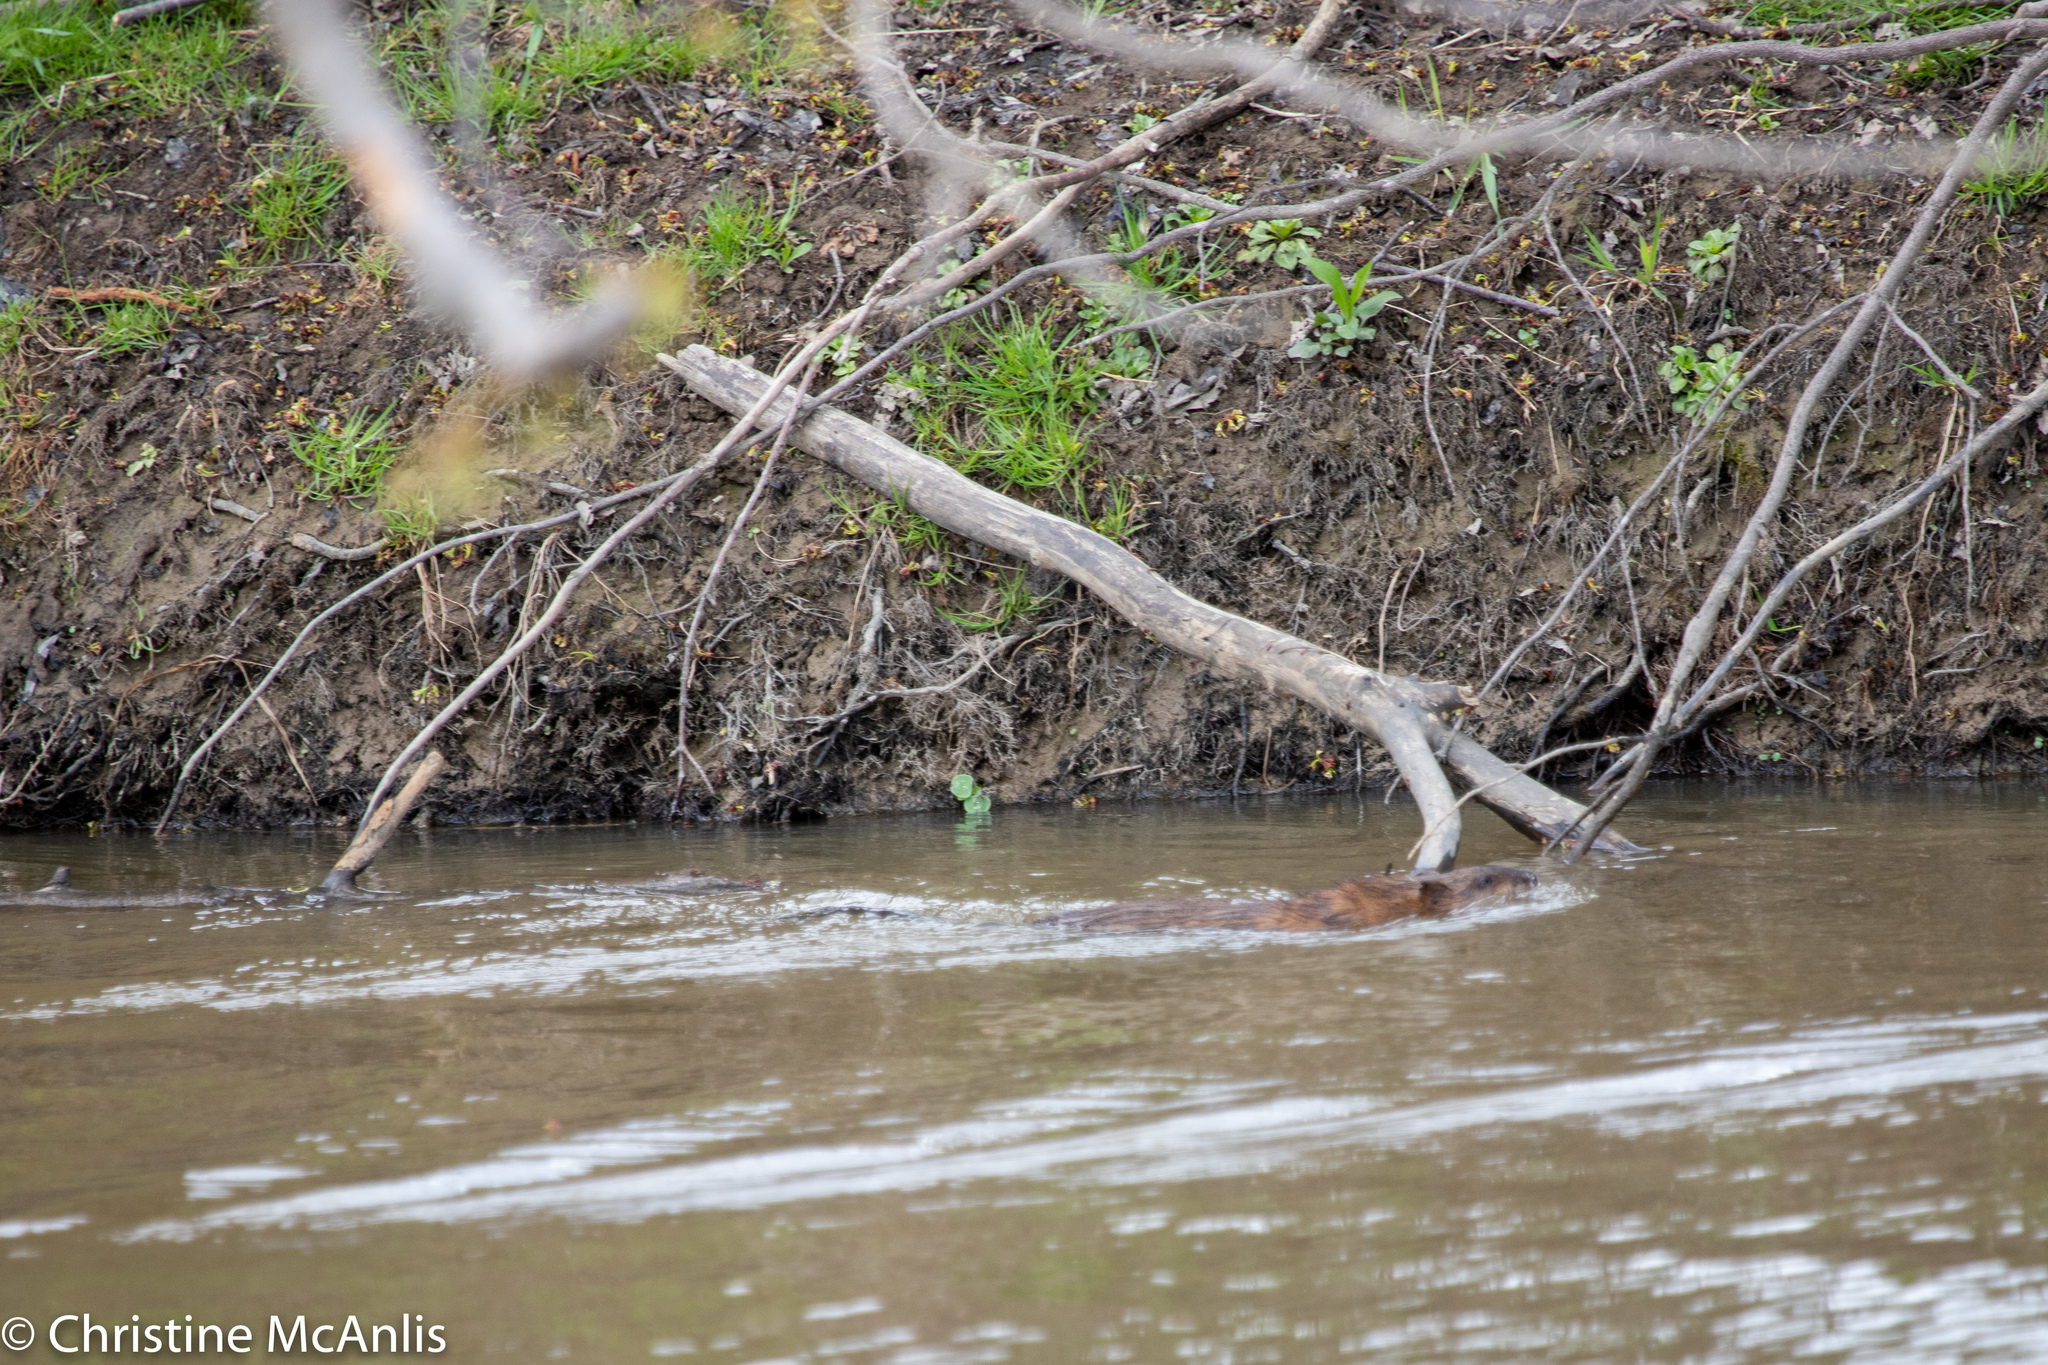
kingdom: Animalia
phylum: Chordata
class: Mammalia
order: Rodentia
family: Cricetidae
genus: Ondatra
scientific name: Ondatra zibethicus
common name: Muskrat
